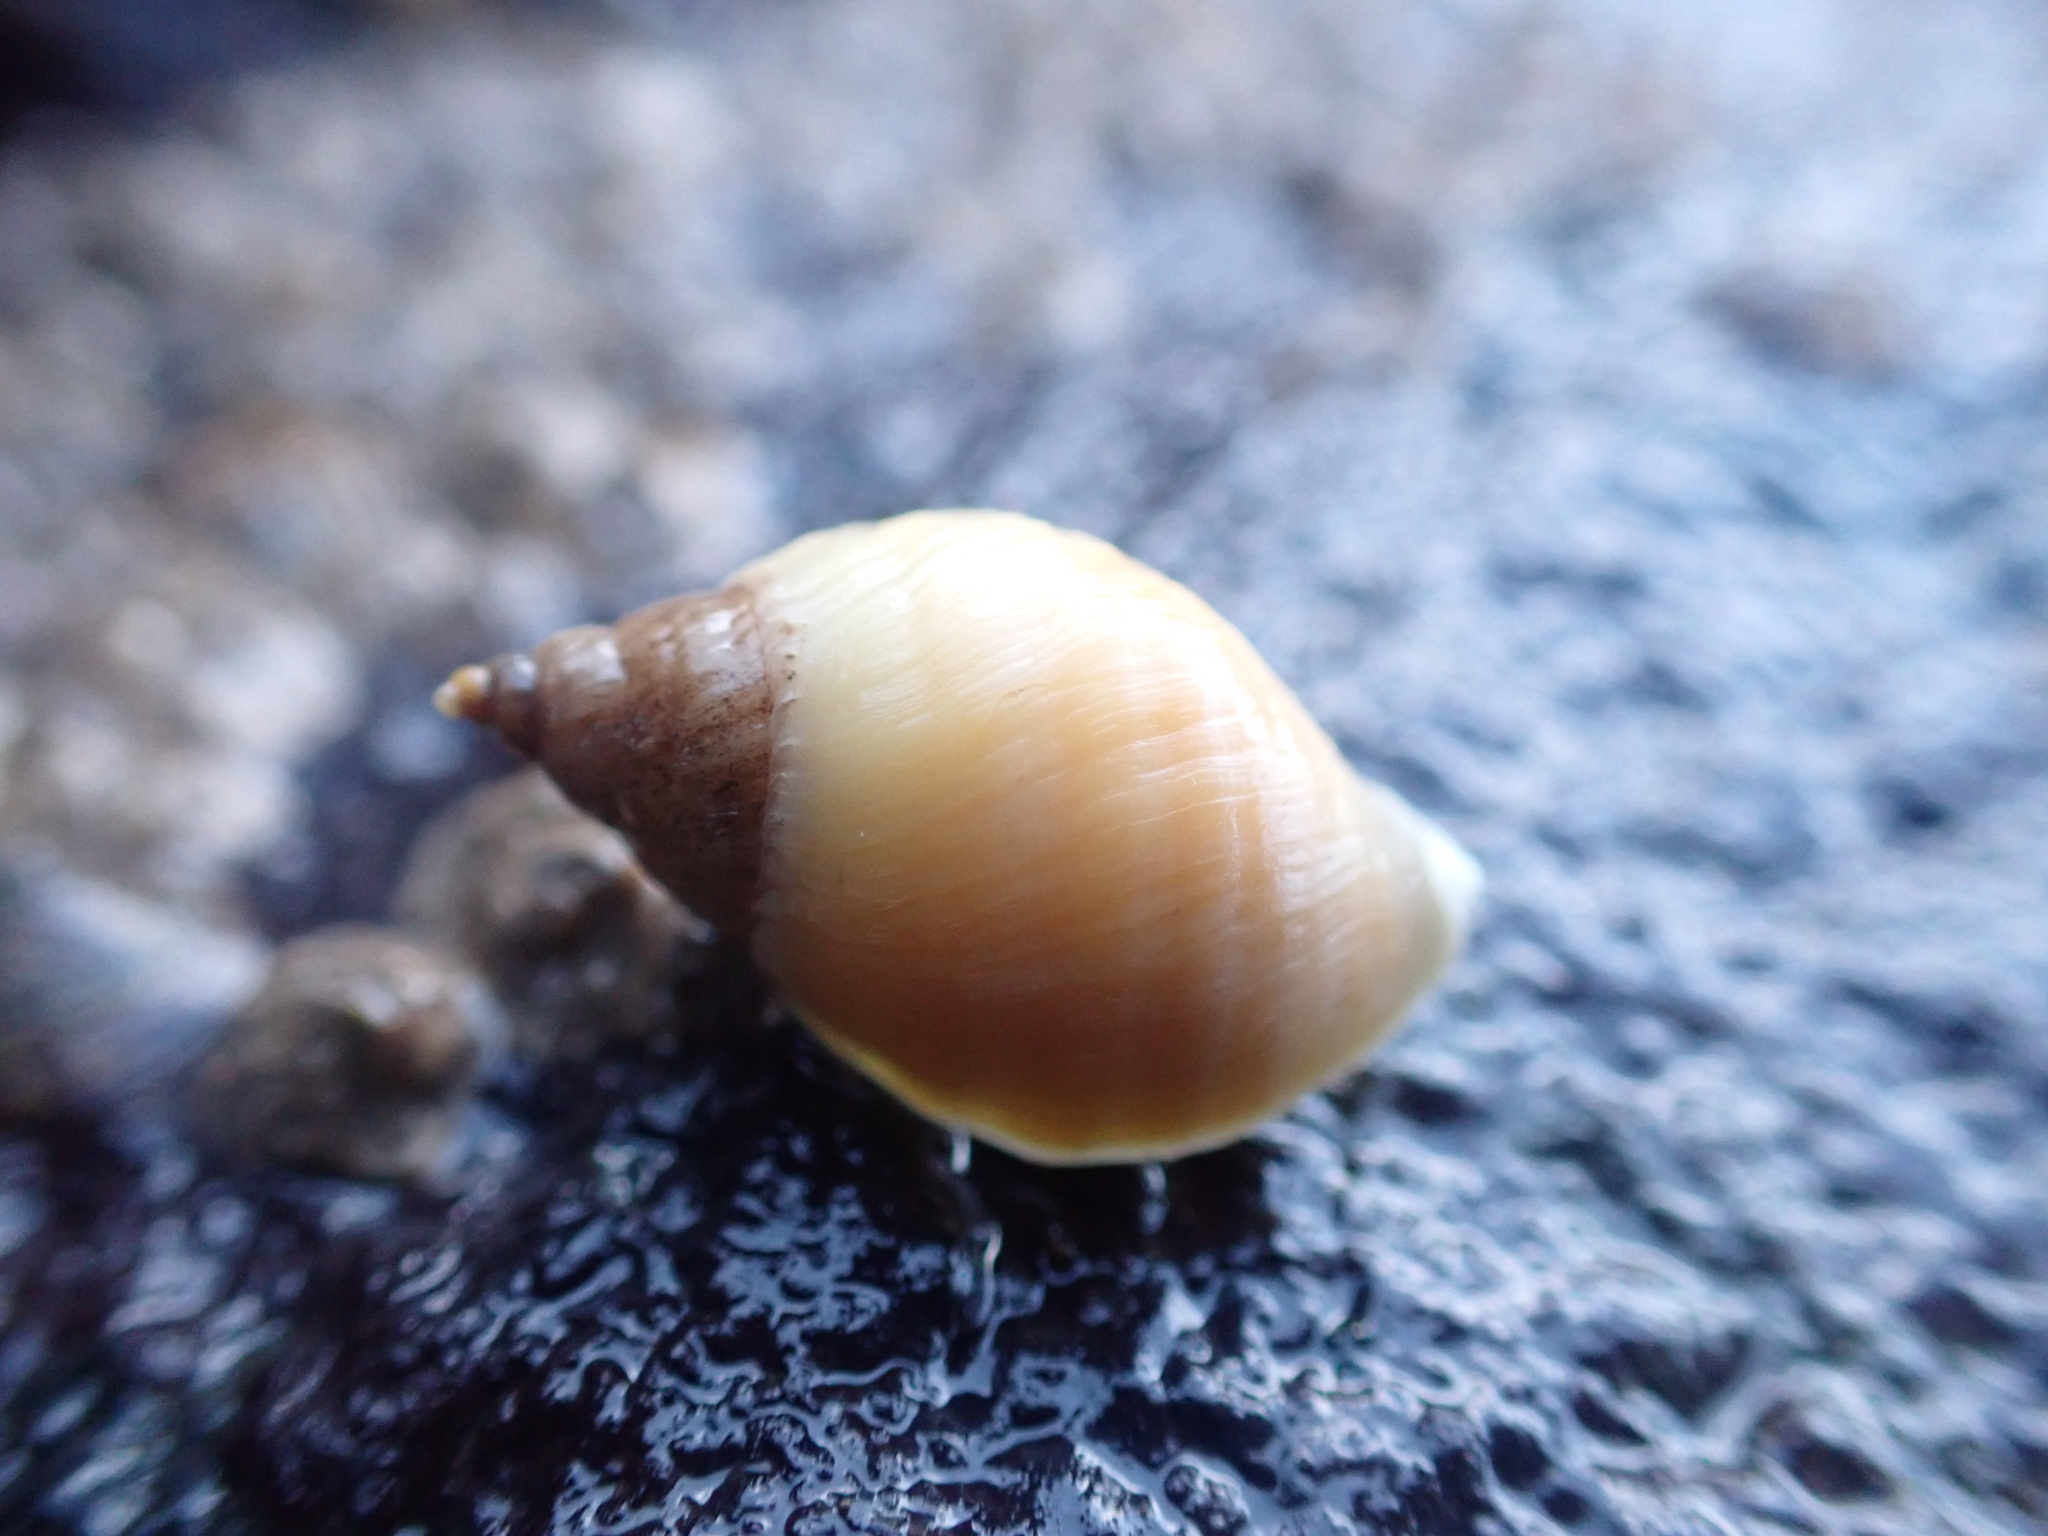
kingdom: Animalia
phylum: Mollusca
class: Gastropoda
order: Neogastropoda
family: Muricidae
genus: Nucella
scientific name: Nucella lapillus
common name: Dog whelk
